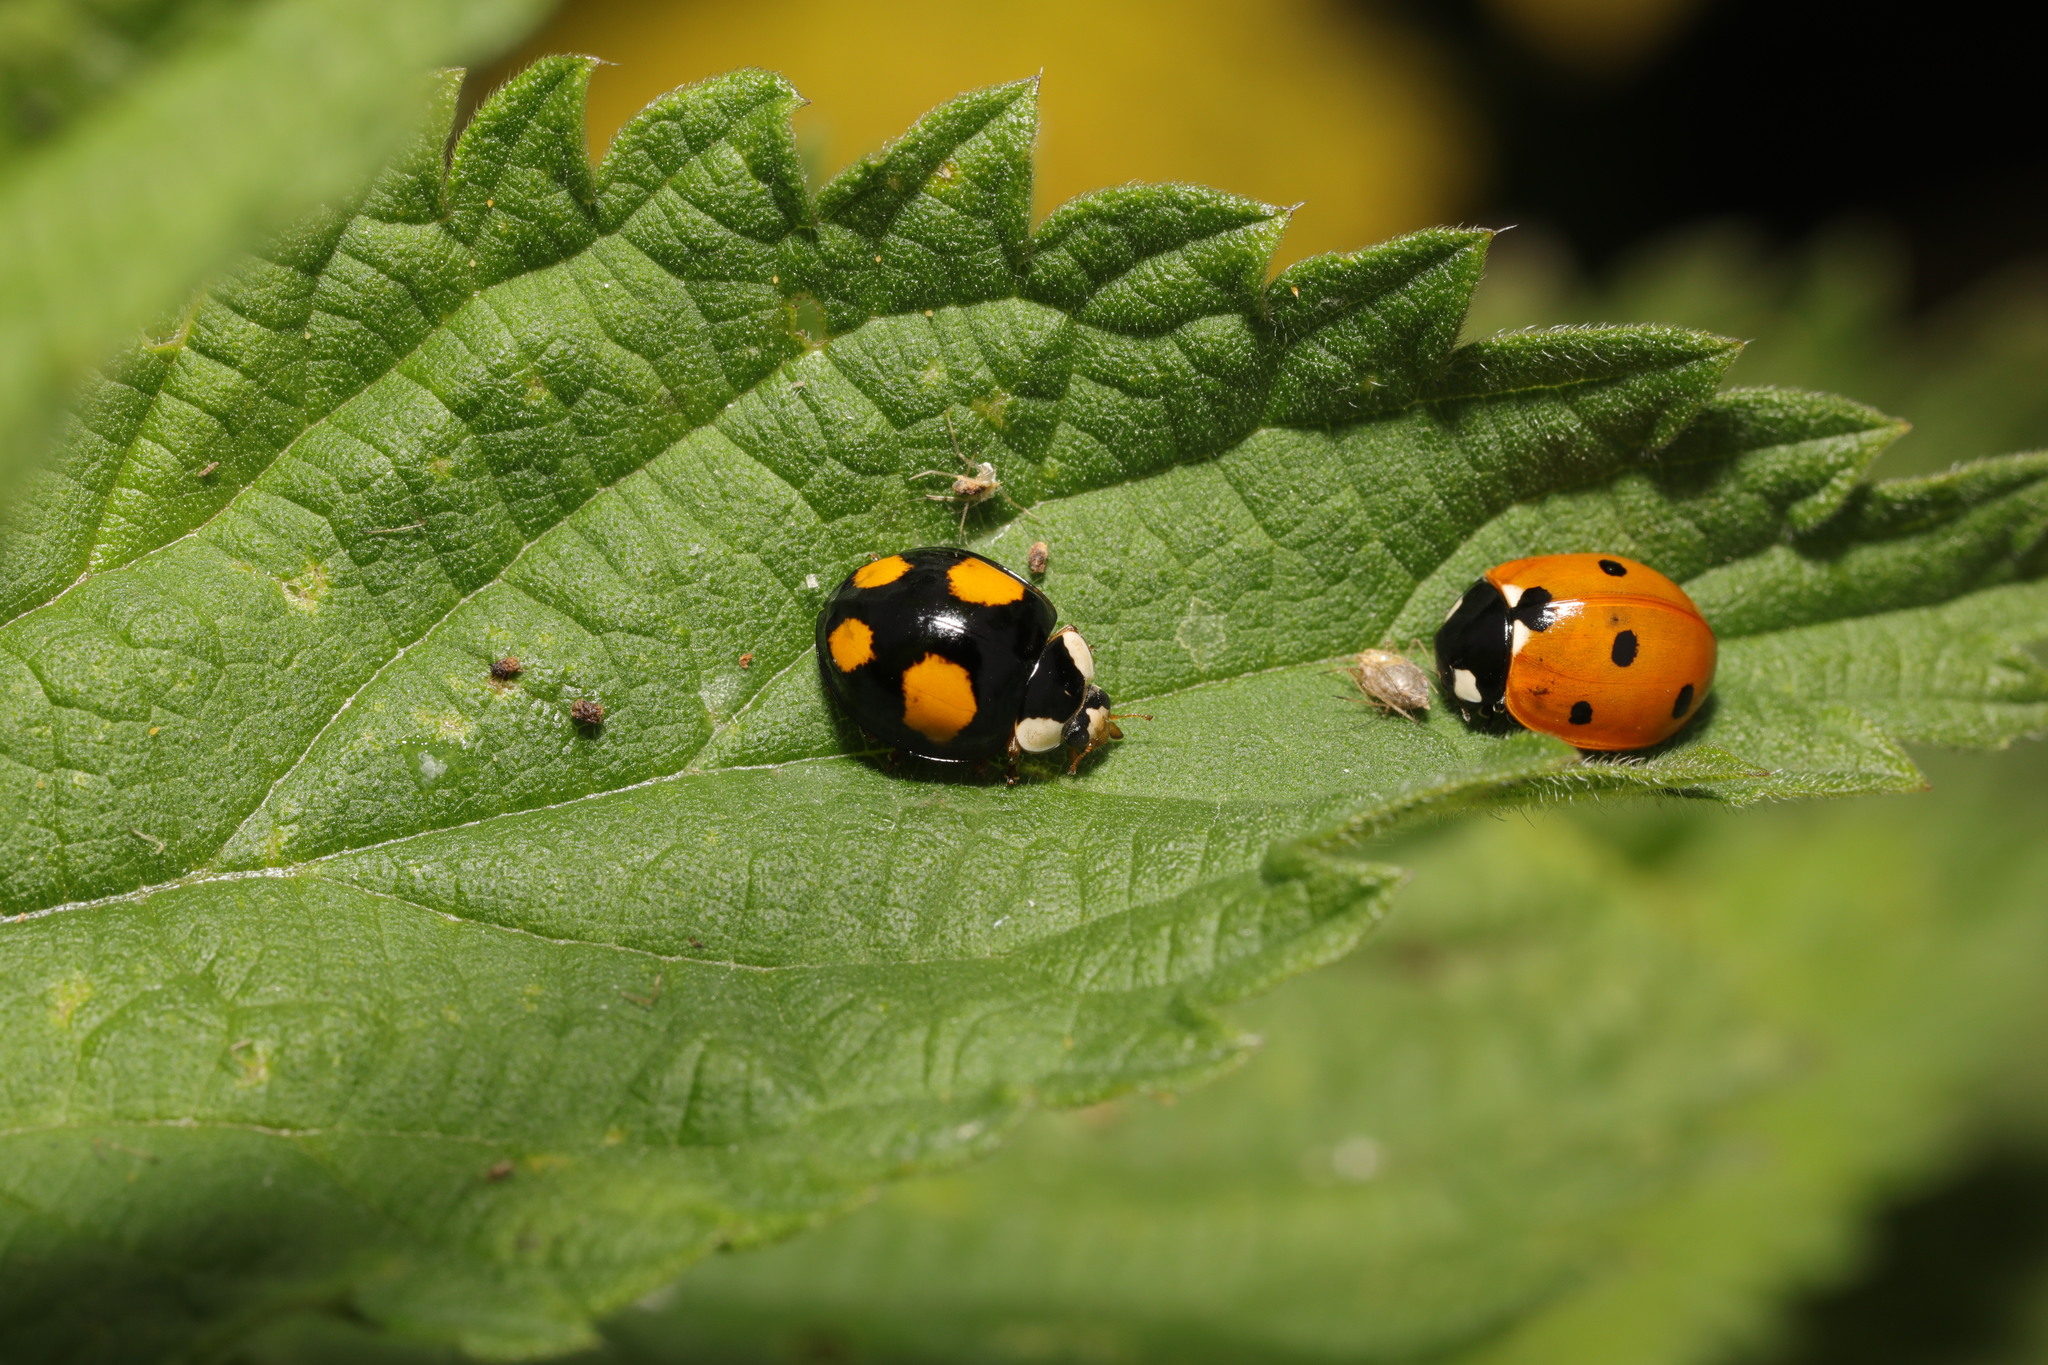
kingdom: Animalia
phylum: Arthropoda
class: Insecta
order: Coleoptera
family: Coccinellidae
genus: Coccinella
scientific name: Coccinella septempunctata
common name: Sevenspotted lady beetle
